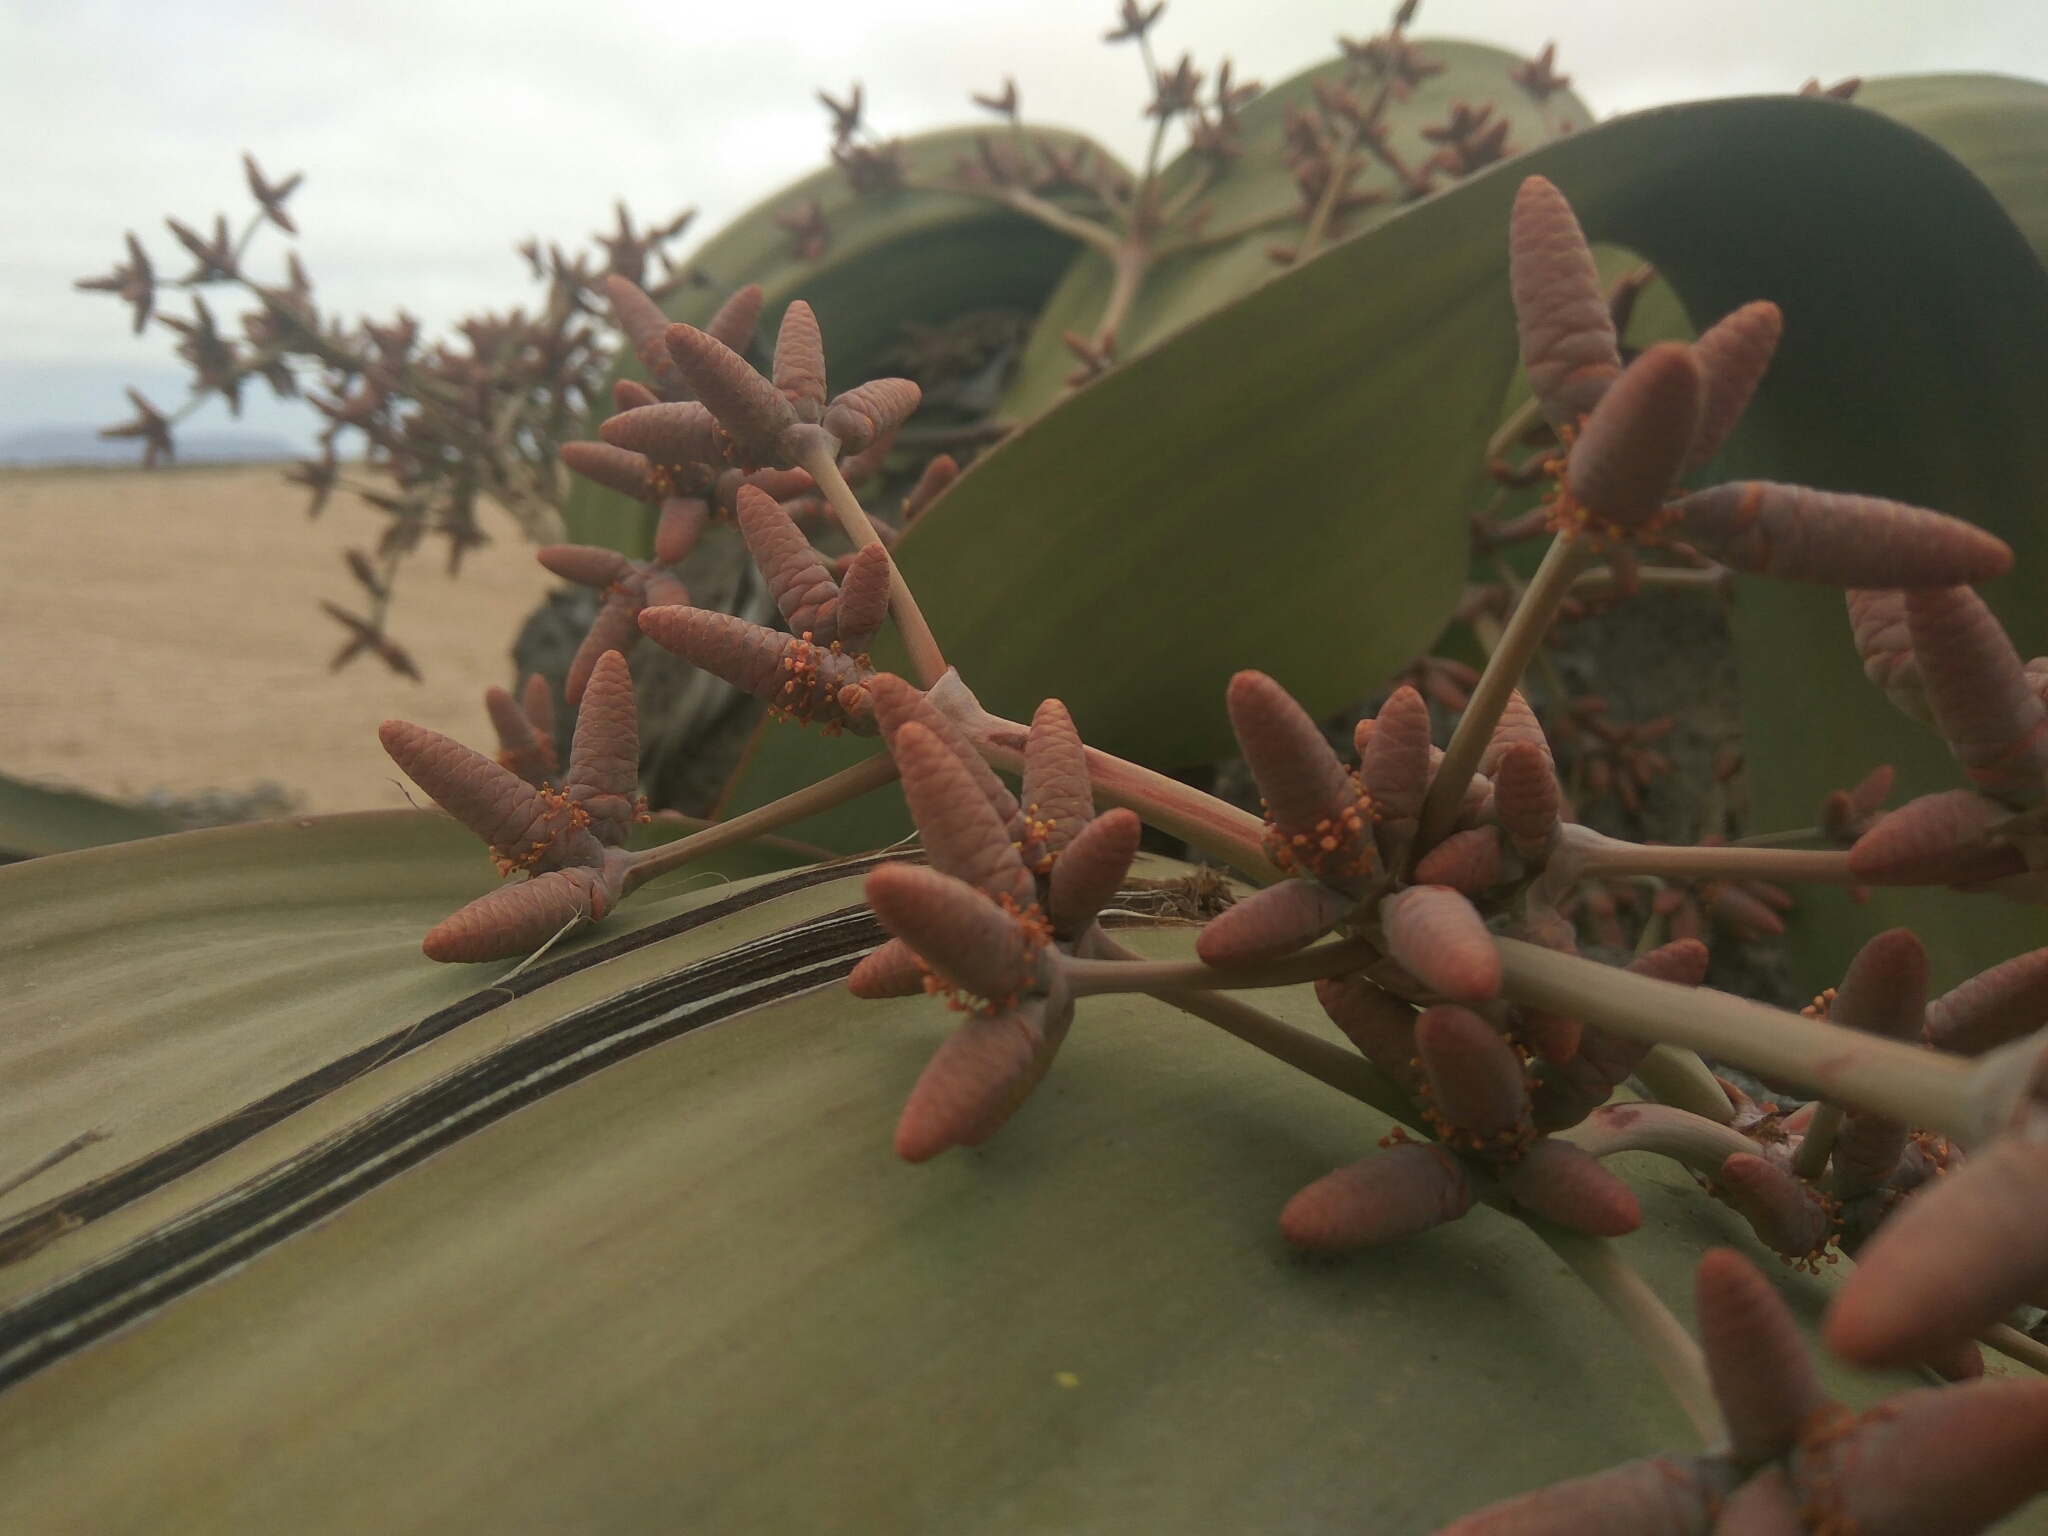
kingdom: Plantae
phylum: Tracheophyta
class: Gnetopsida
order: Welwitschiales
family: Welwitschiaceae
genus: Welwitschia
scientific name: Welwitschia mirabilis
